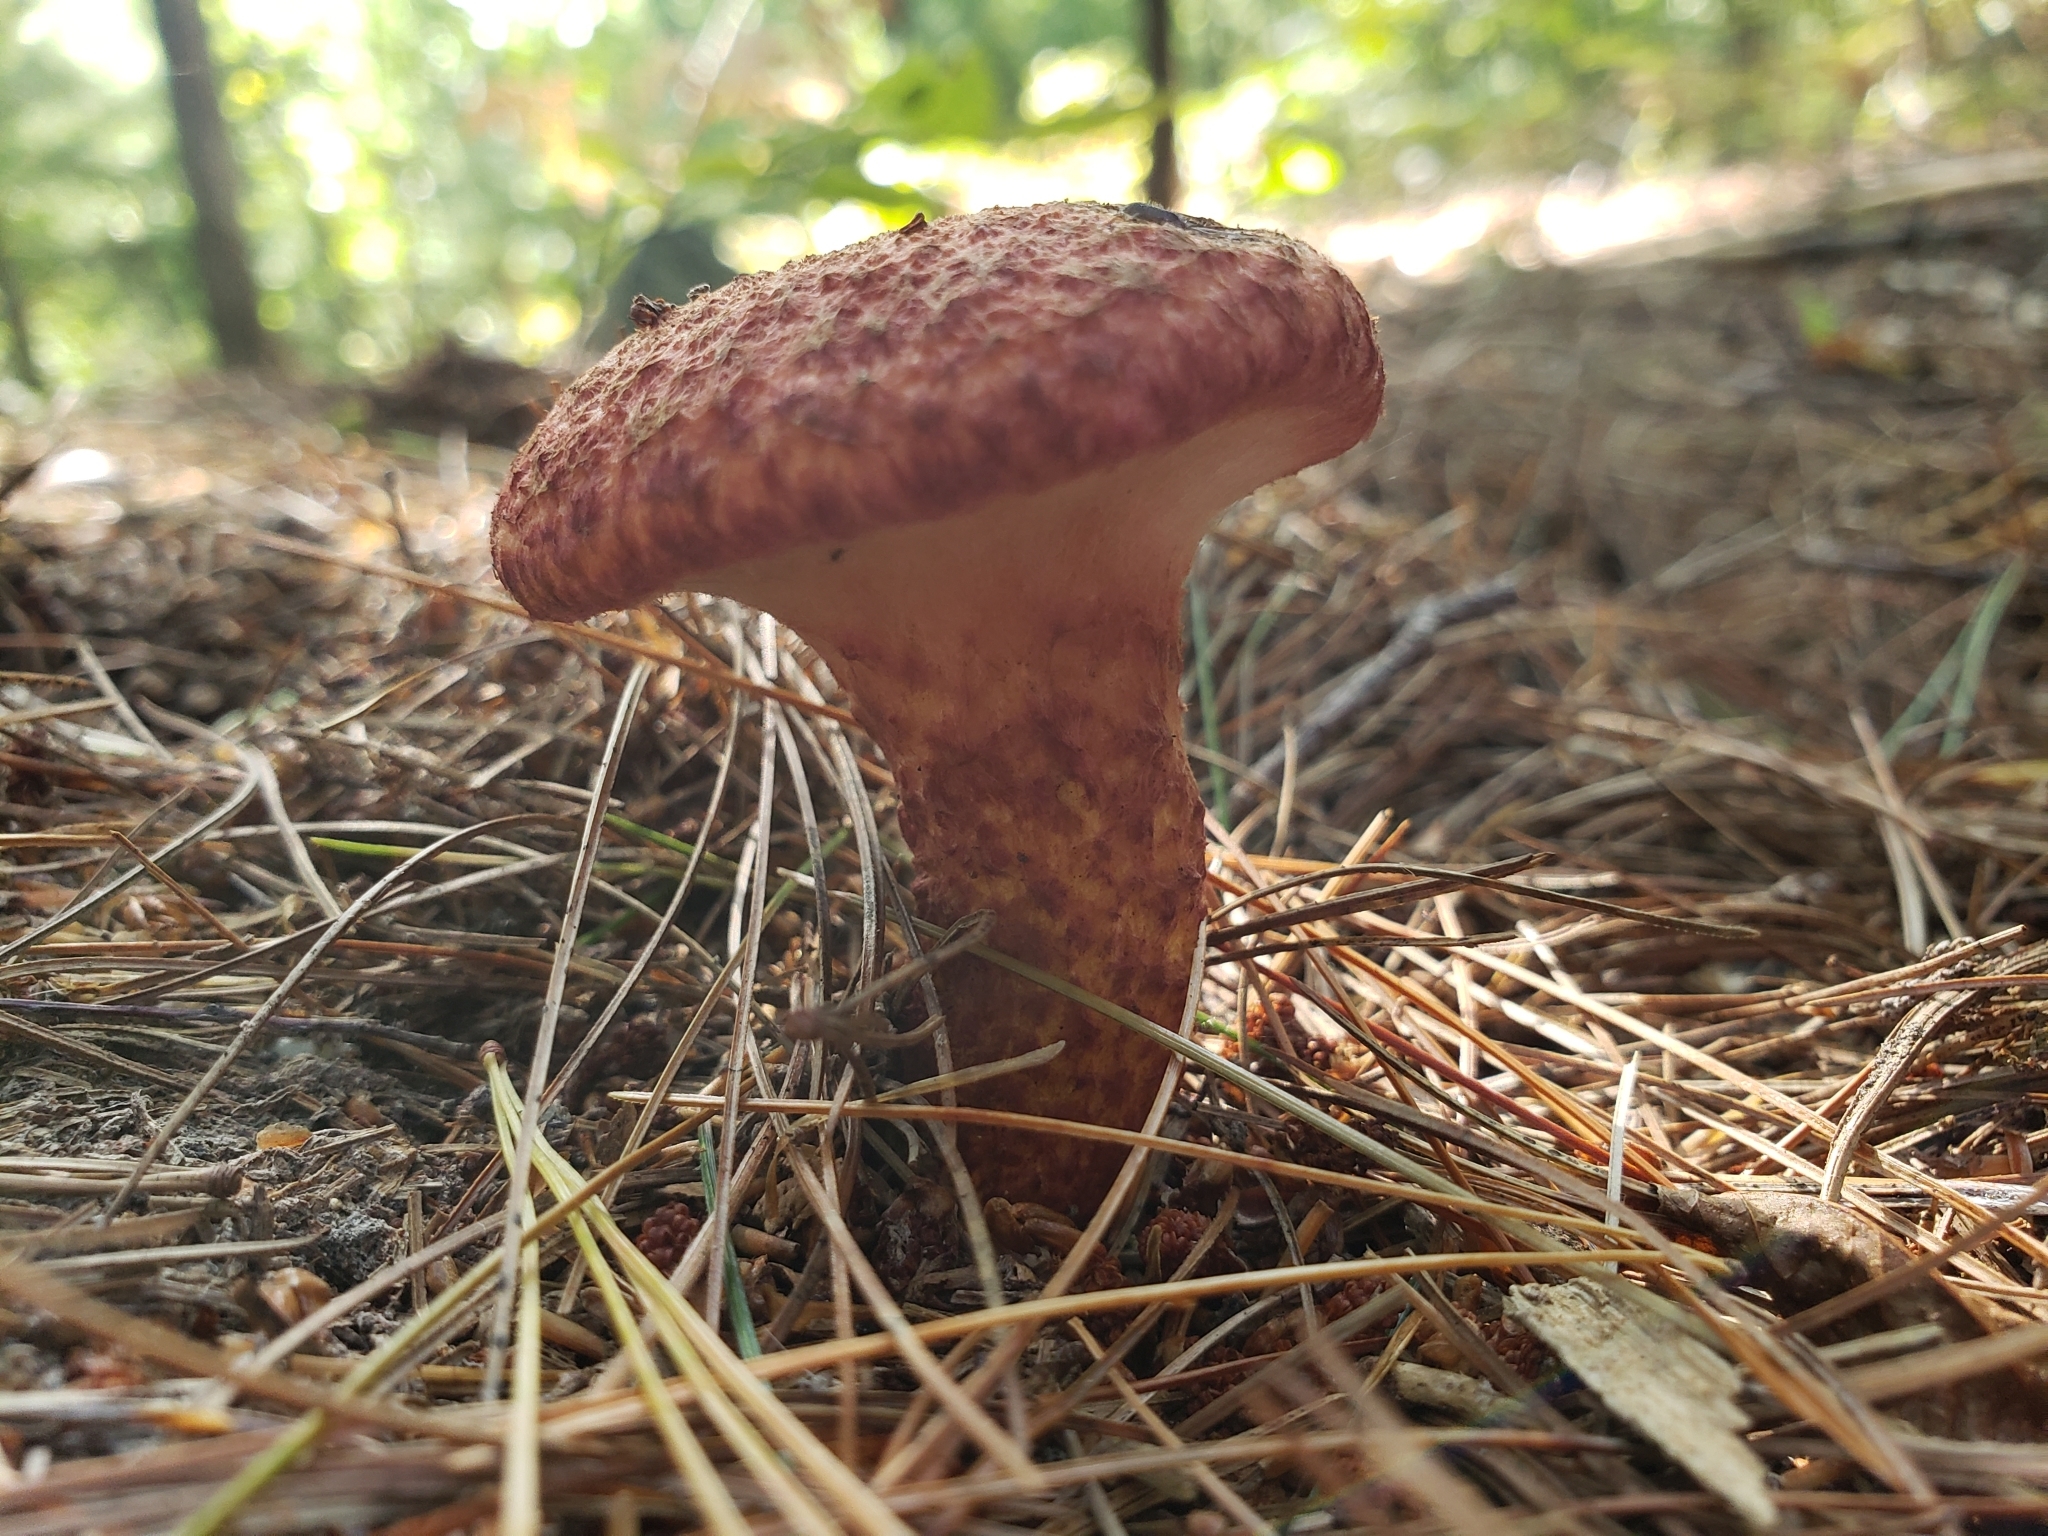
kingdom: Fungi
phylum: Basidiomycota
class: Agaricomycetes
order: Boletales
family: Suillaceae
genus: Suillus
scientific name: Suillus spraguei
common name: Painted suillus
